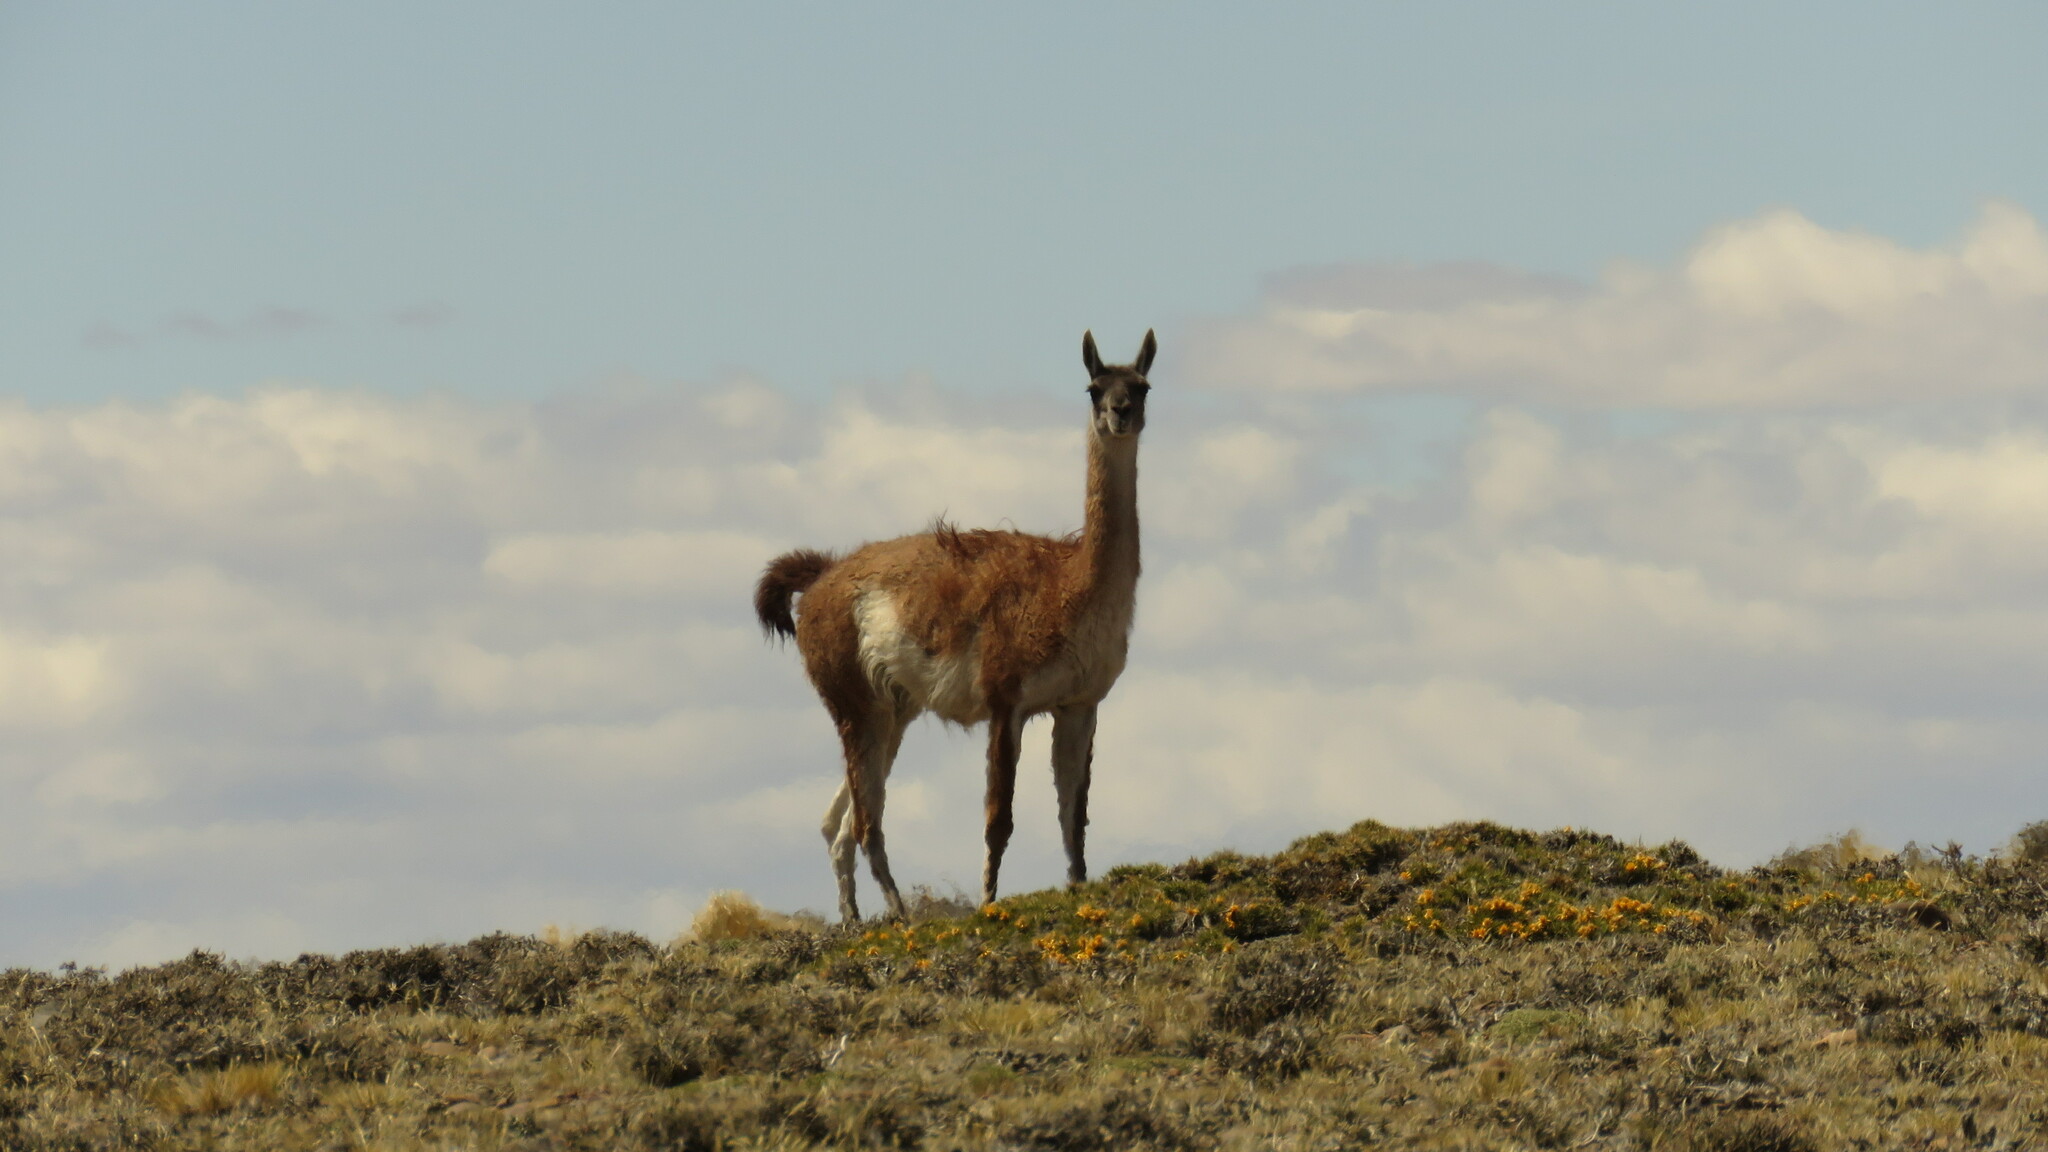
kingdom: Animalia
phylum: Chordata
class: Mammalia
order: Artiodactyla
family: Camelidae
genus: Lama
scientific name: Lama glama
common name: Llama
